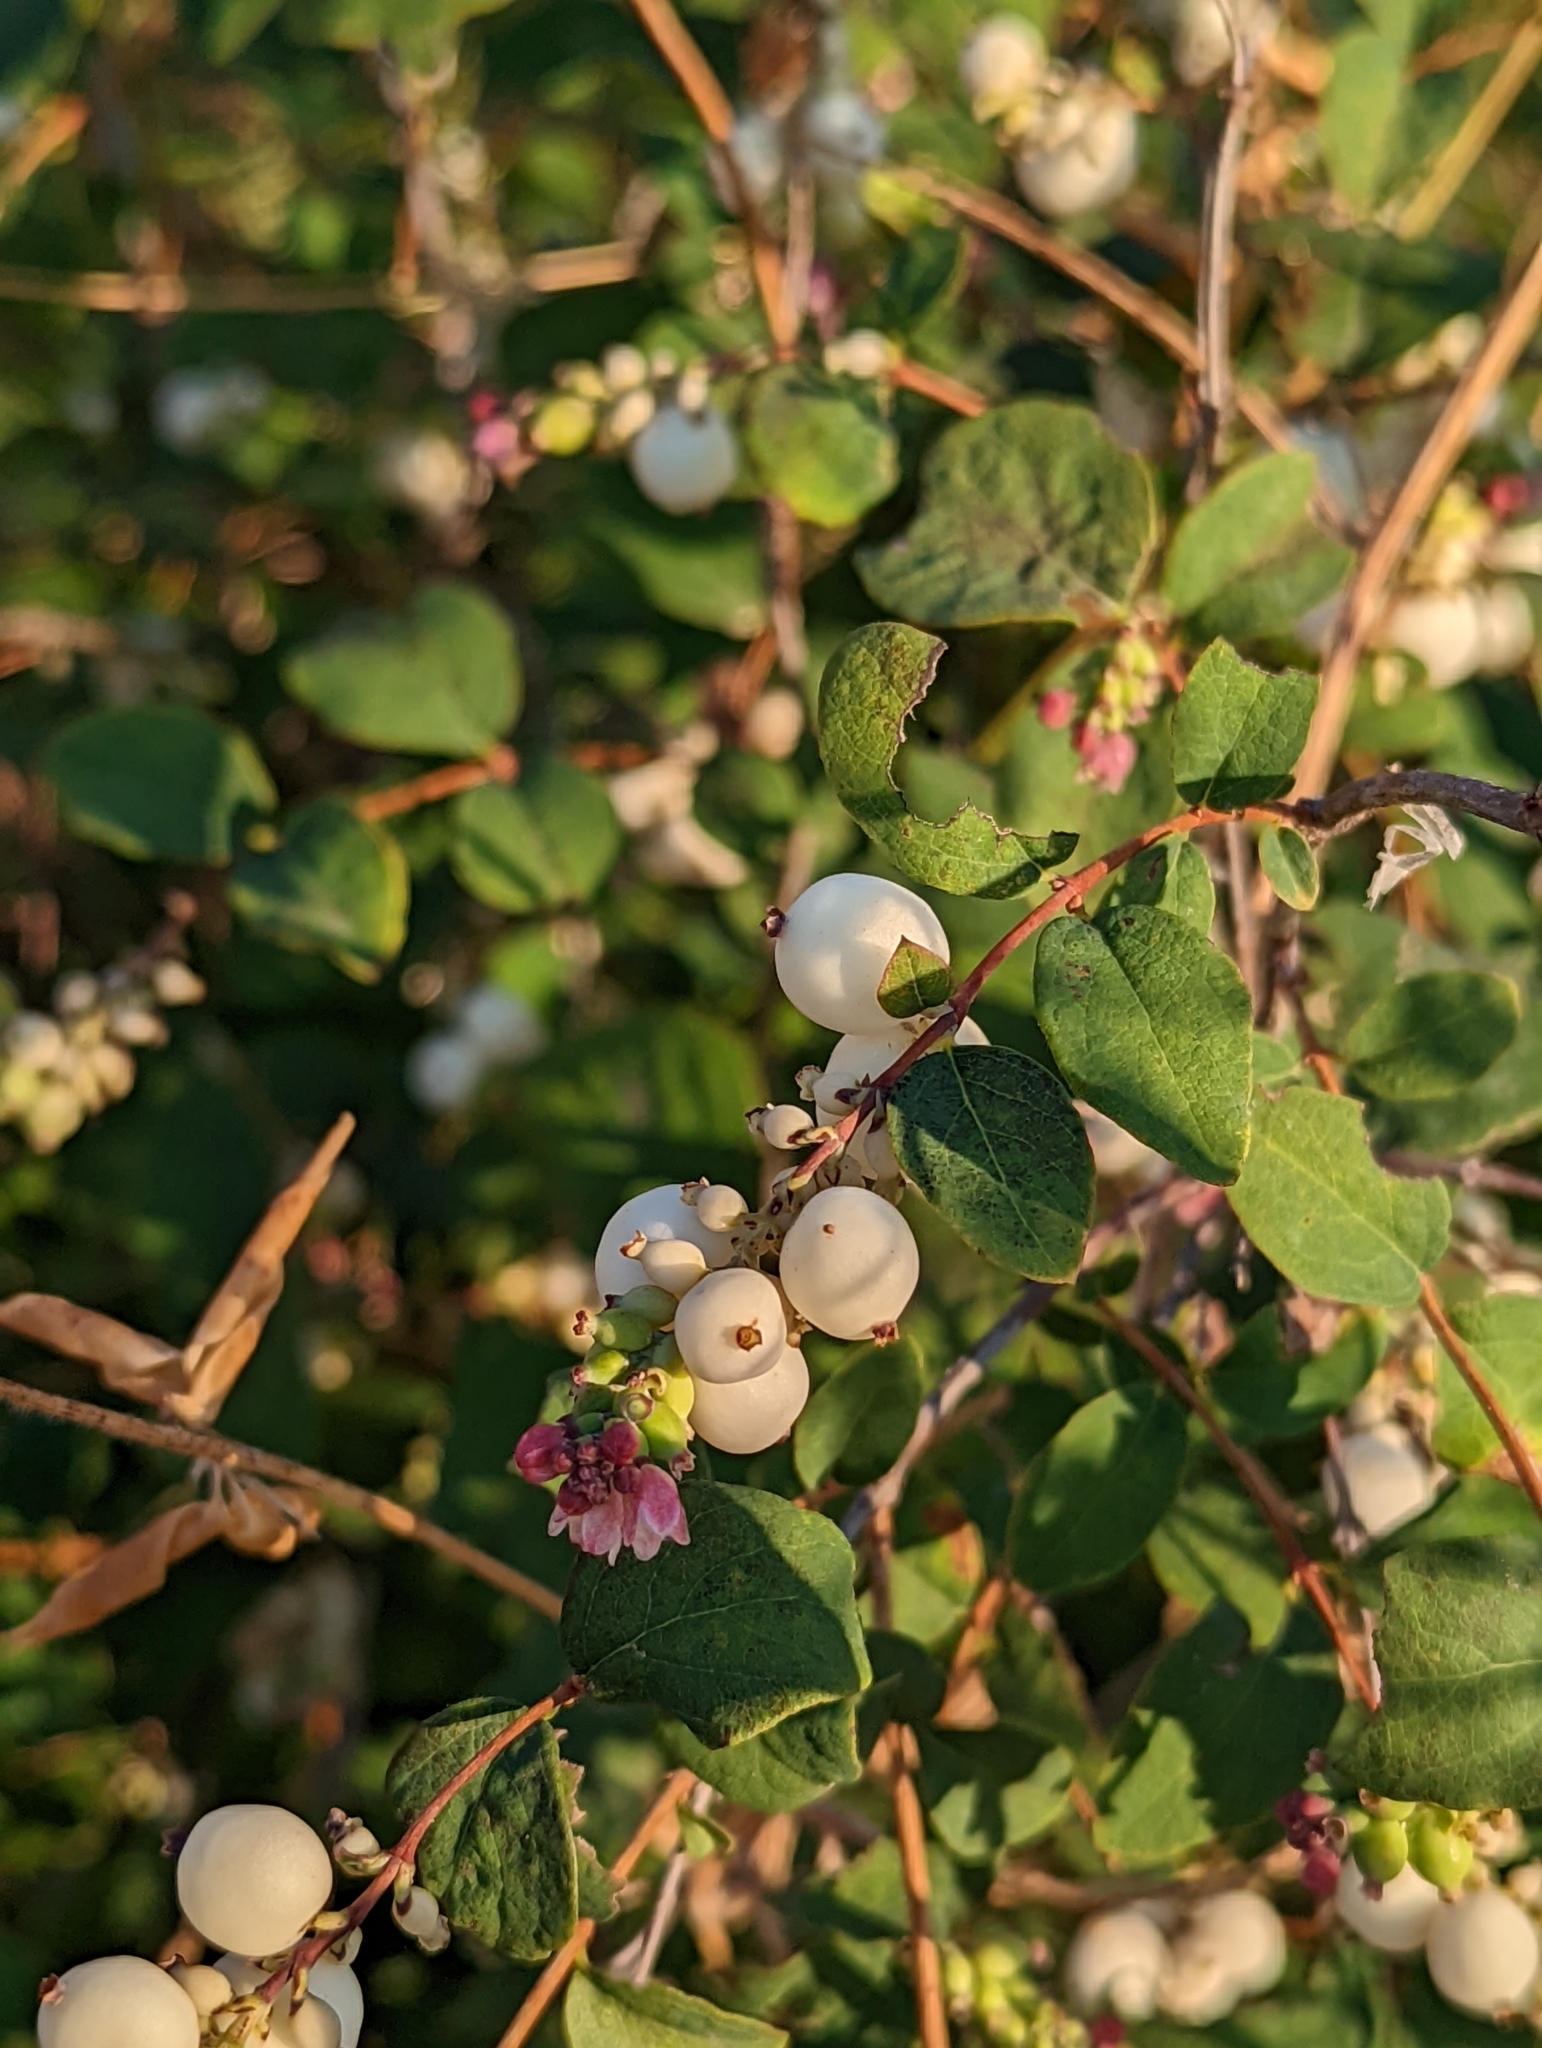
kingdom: Plantae
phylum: Tracheophyta
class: Magnoliopsida
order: Dipsacales
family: Caprifoliaceae
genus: Symphoricarpos
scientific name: Symphoricarpos albus
